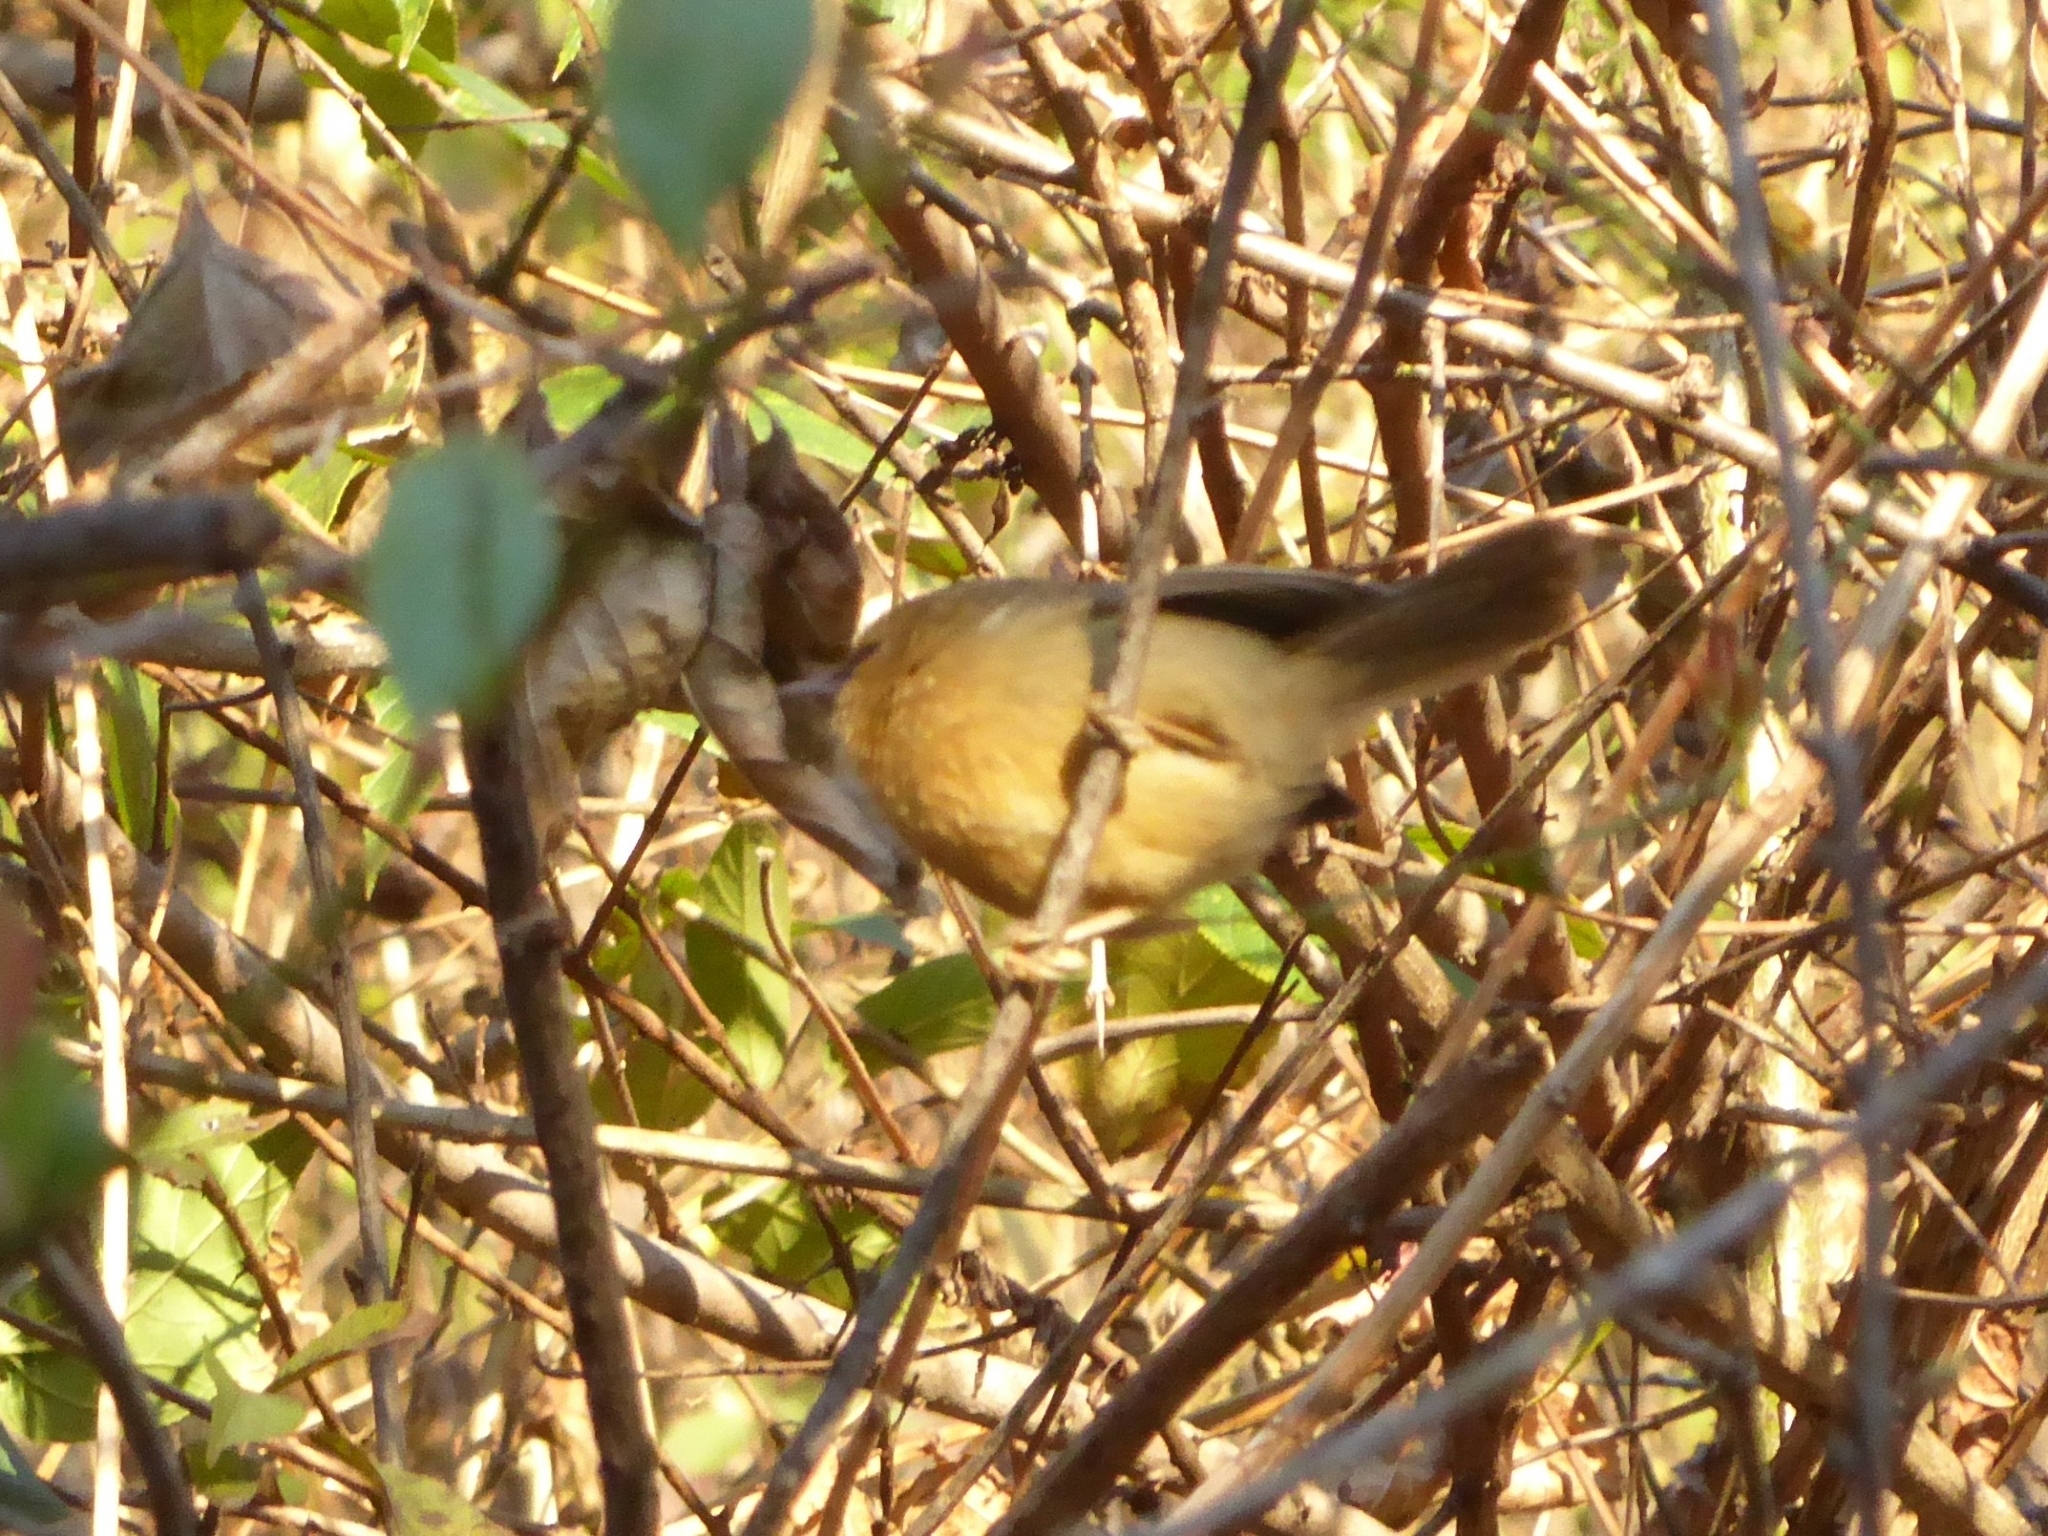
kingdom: Animalia
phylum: Chordata
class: Aves
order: Passeriformes
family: Timaliidae
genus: Stachyridopsis
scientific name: Stachyridopsis pyrrhops
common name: Black-chinned babbler
